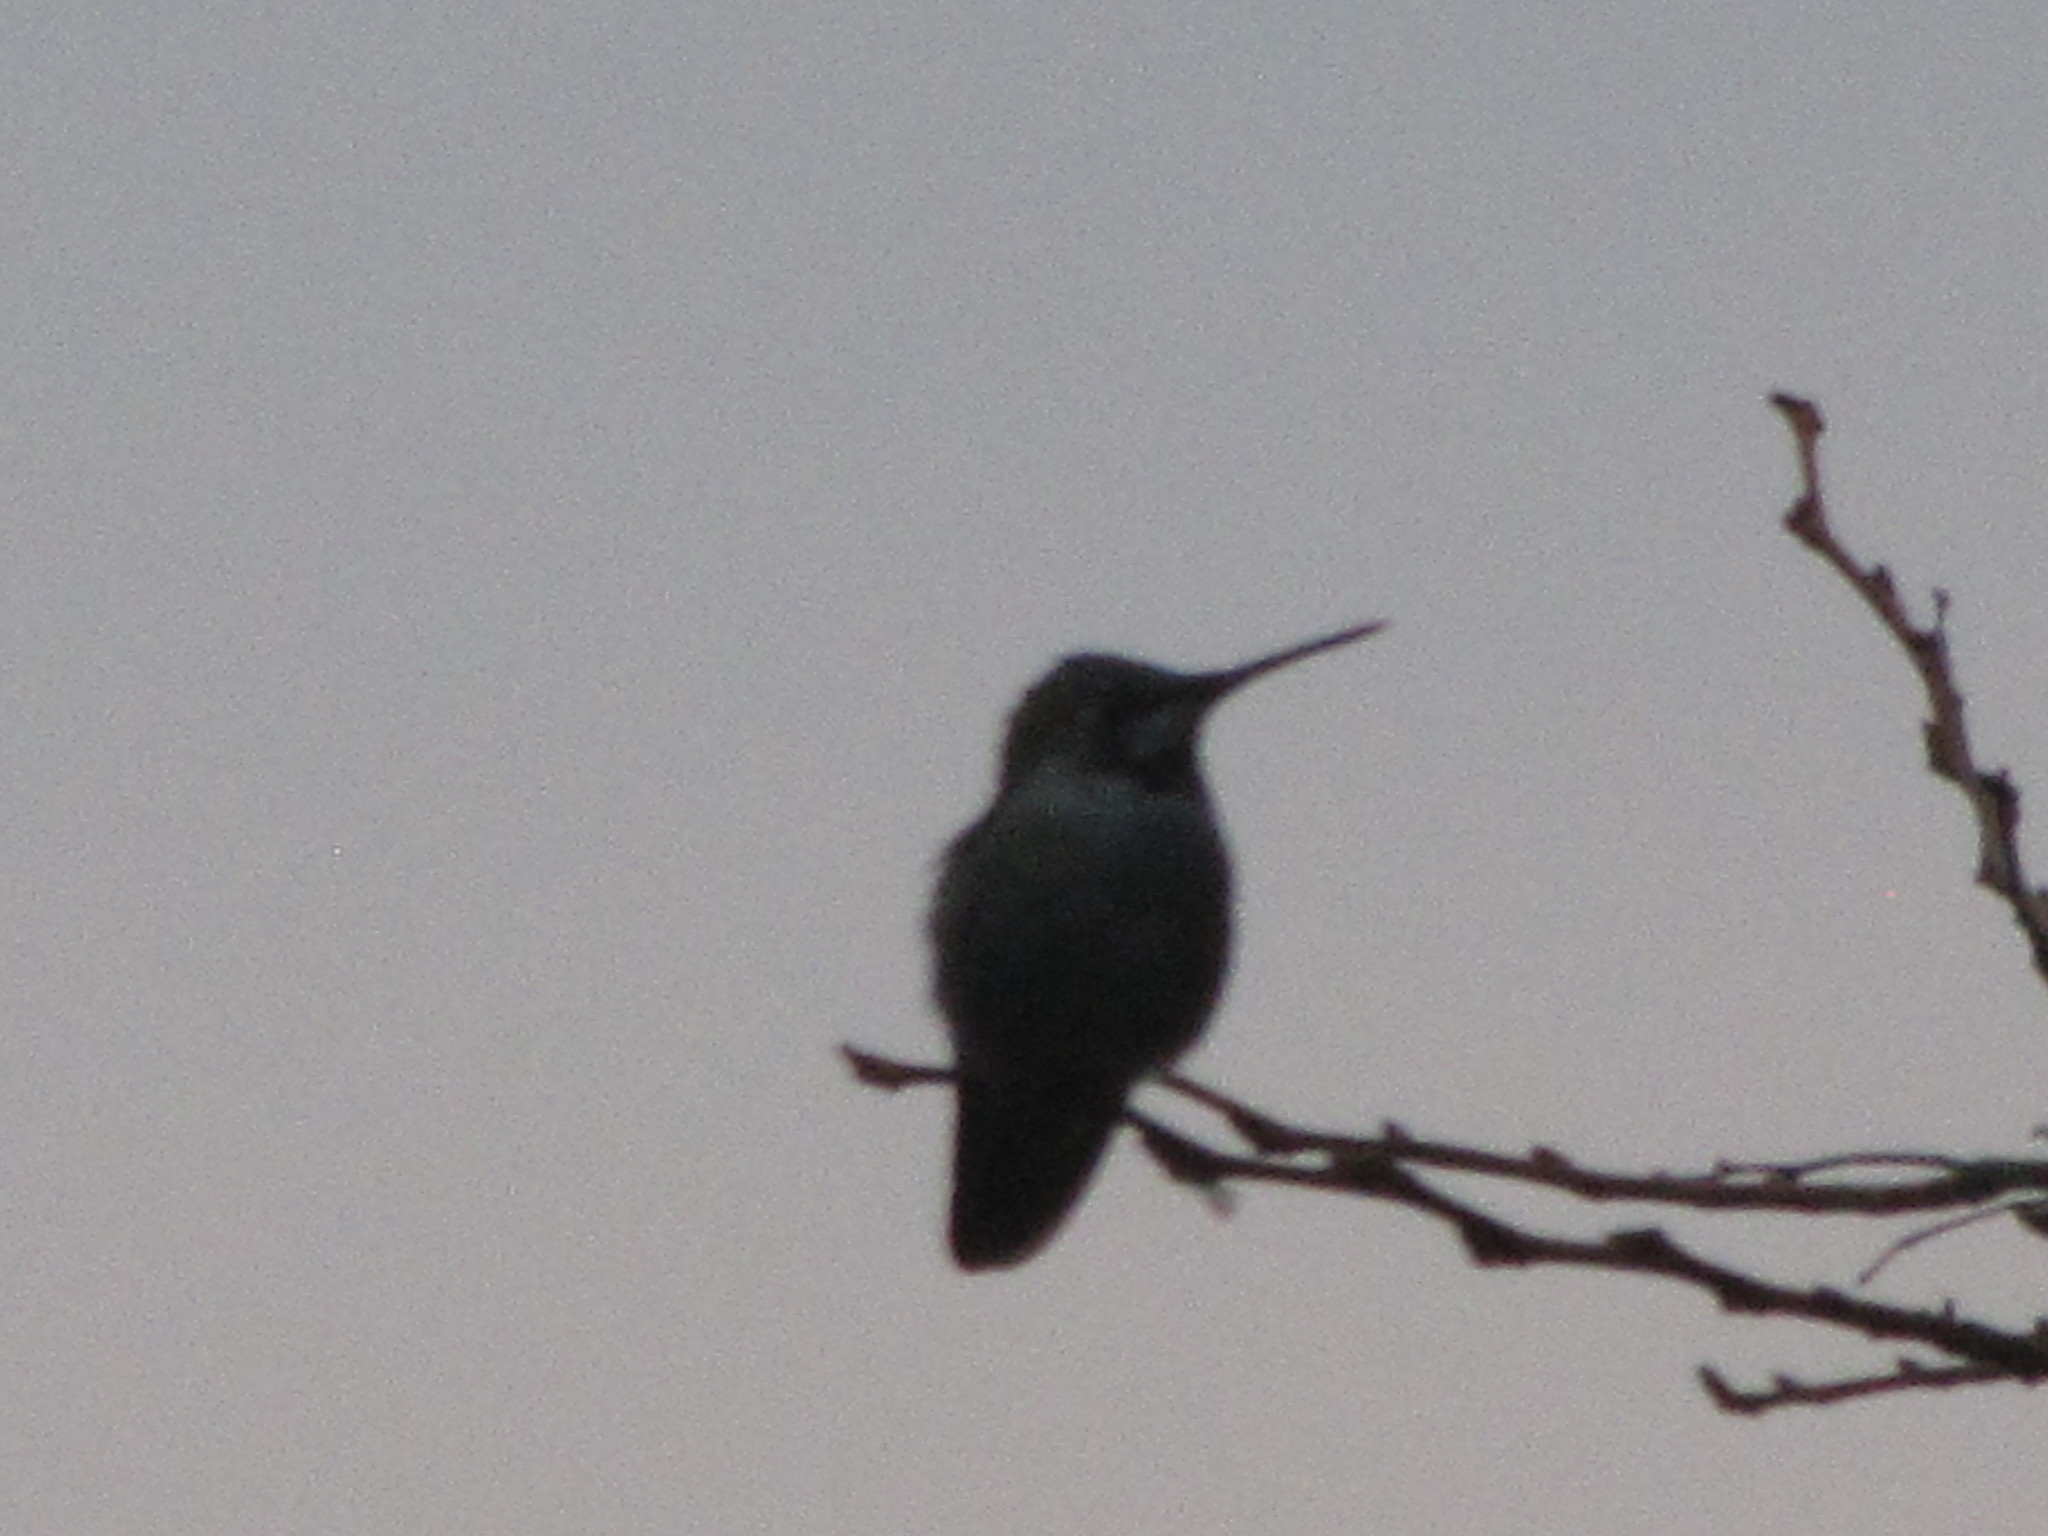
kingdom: Animalia
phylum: Chordata
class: Aves
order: Apodiformes
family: Trochilidae
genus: Calypte
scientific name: Calypte anna
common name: Anna's hummingbird
